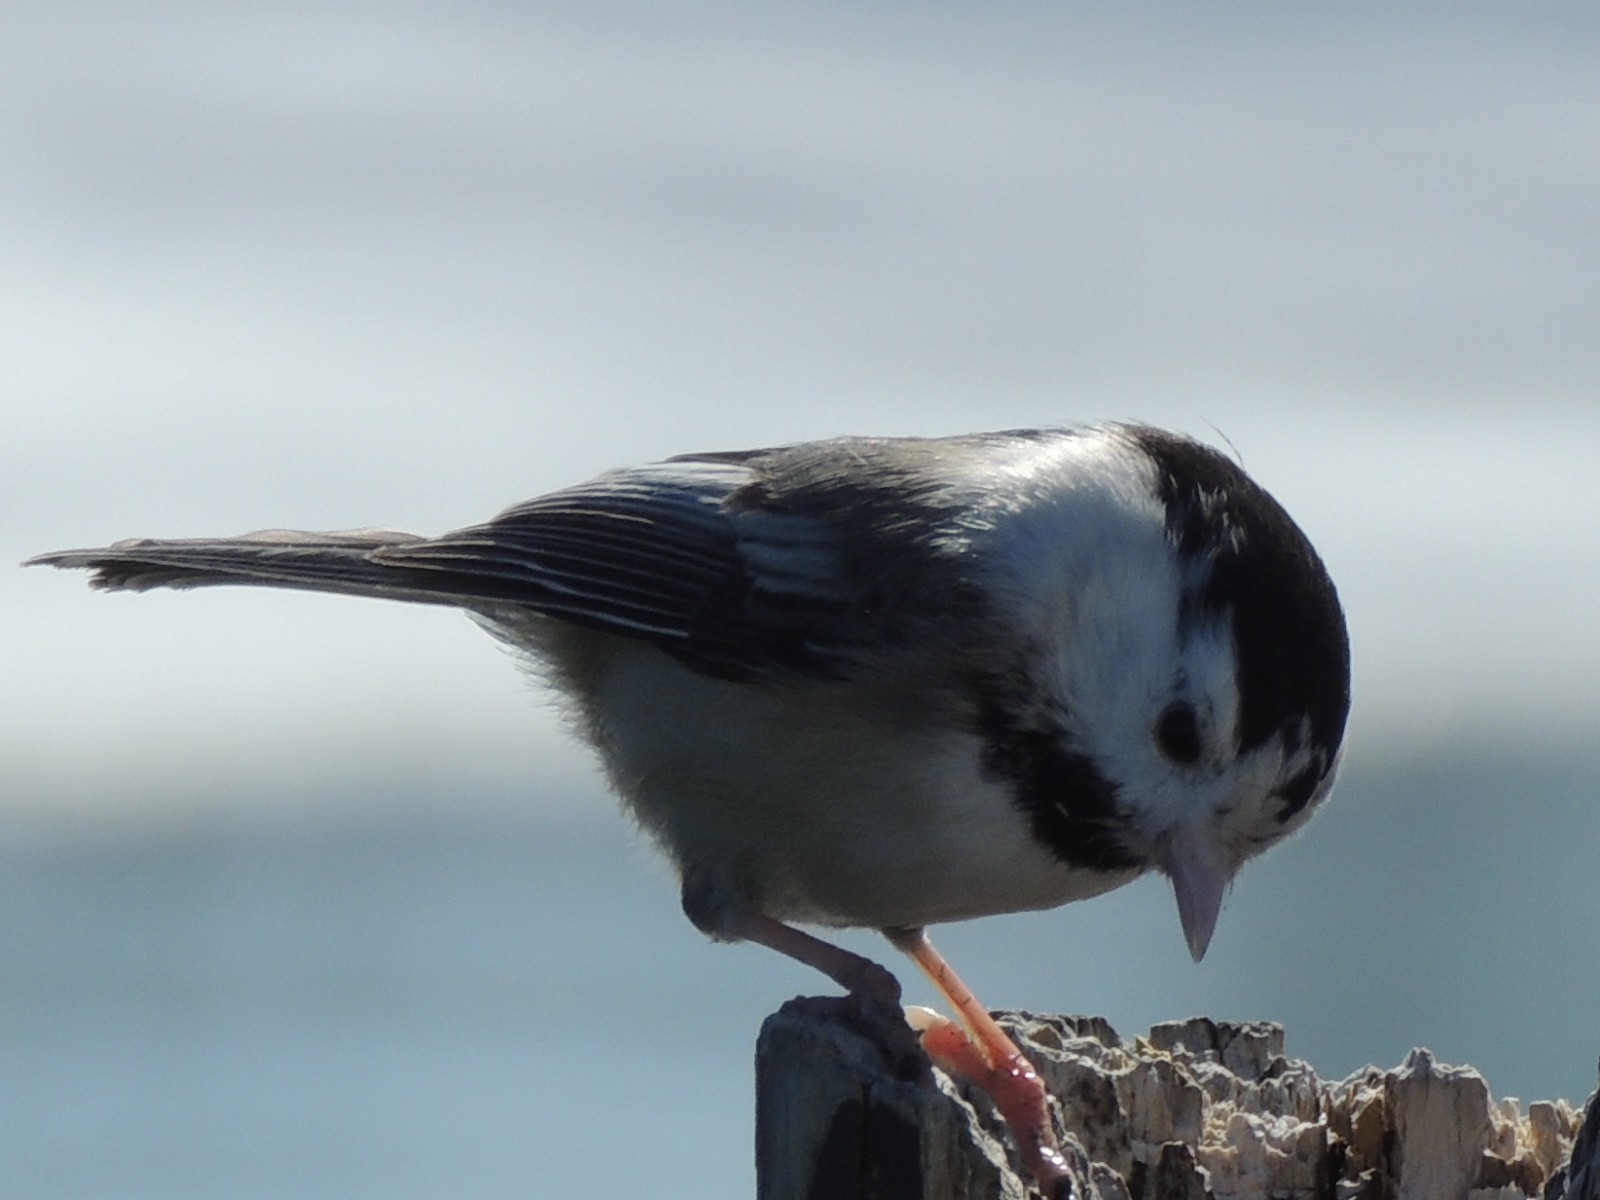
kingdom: Animalia
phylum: Chordata
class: Aves
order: Passeriformes
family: Paridae
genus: Poecile
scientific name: Poecile atricapillus
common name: Black-capped chickadee
